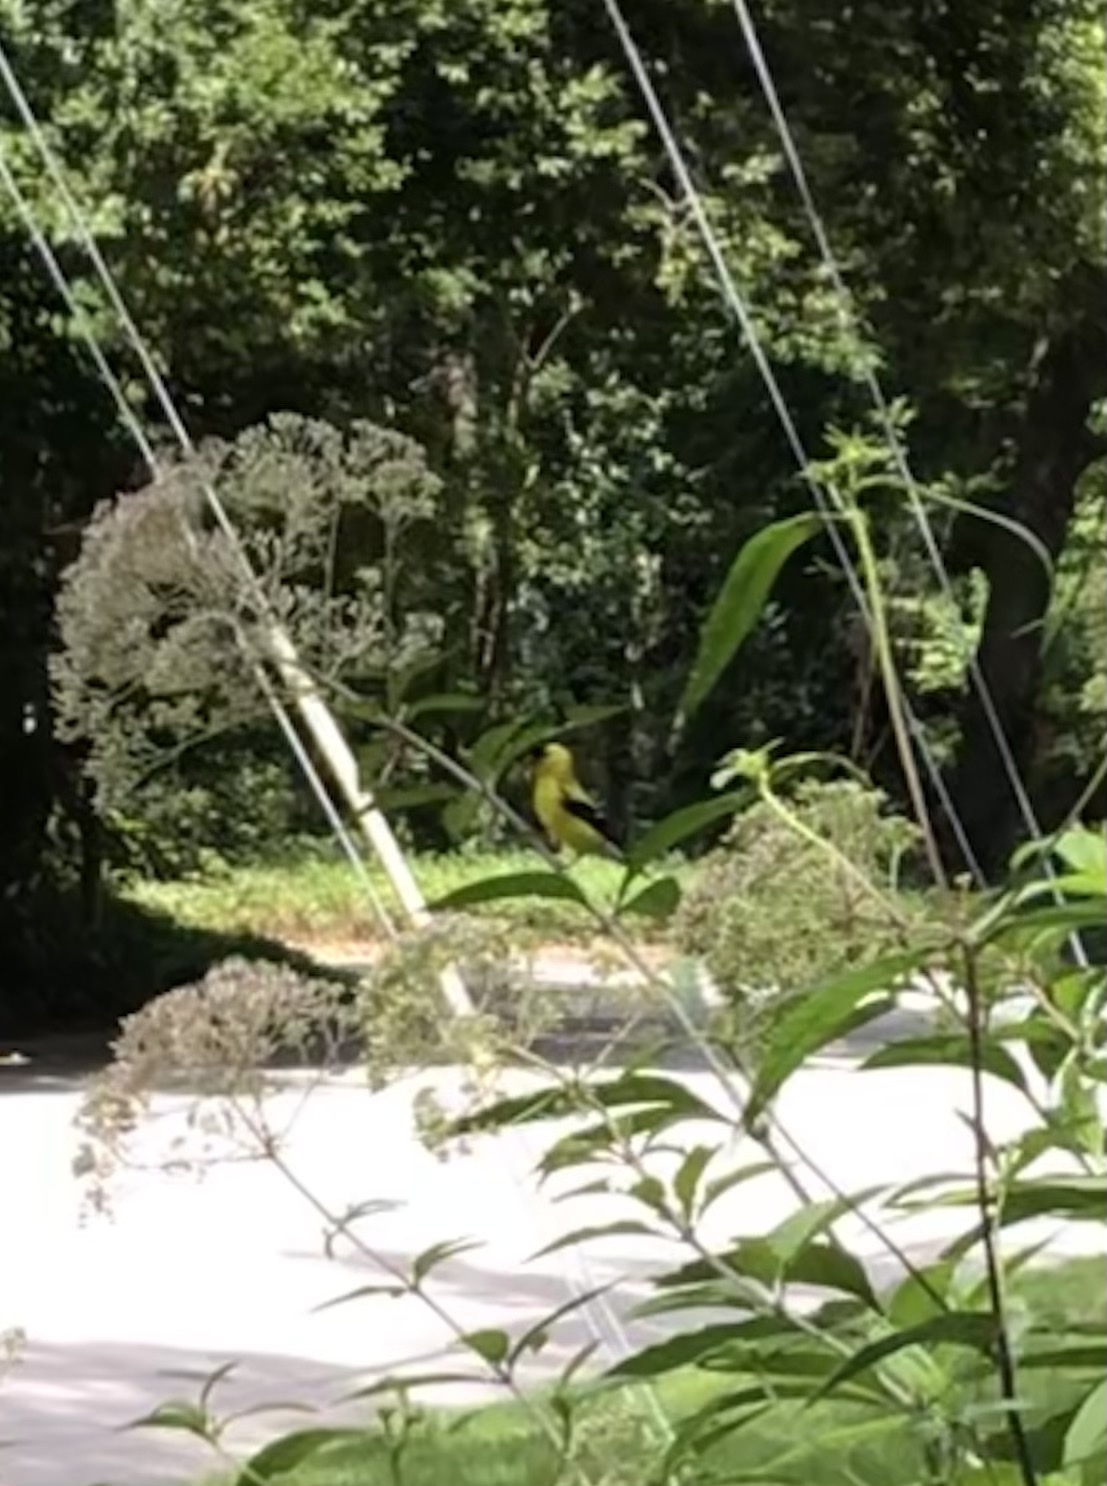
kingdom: Animalia
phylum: Chordata
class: Aves
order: Passeriformes
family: Fringillidae
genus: Spinus
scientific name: Spinus tristis
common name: American goldfinch
